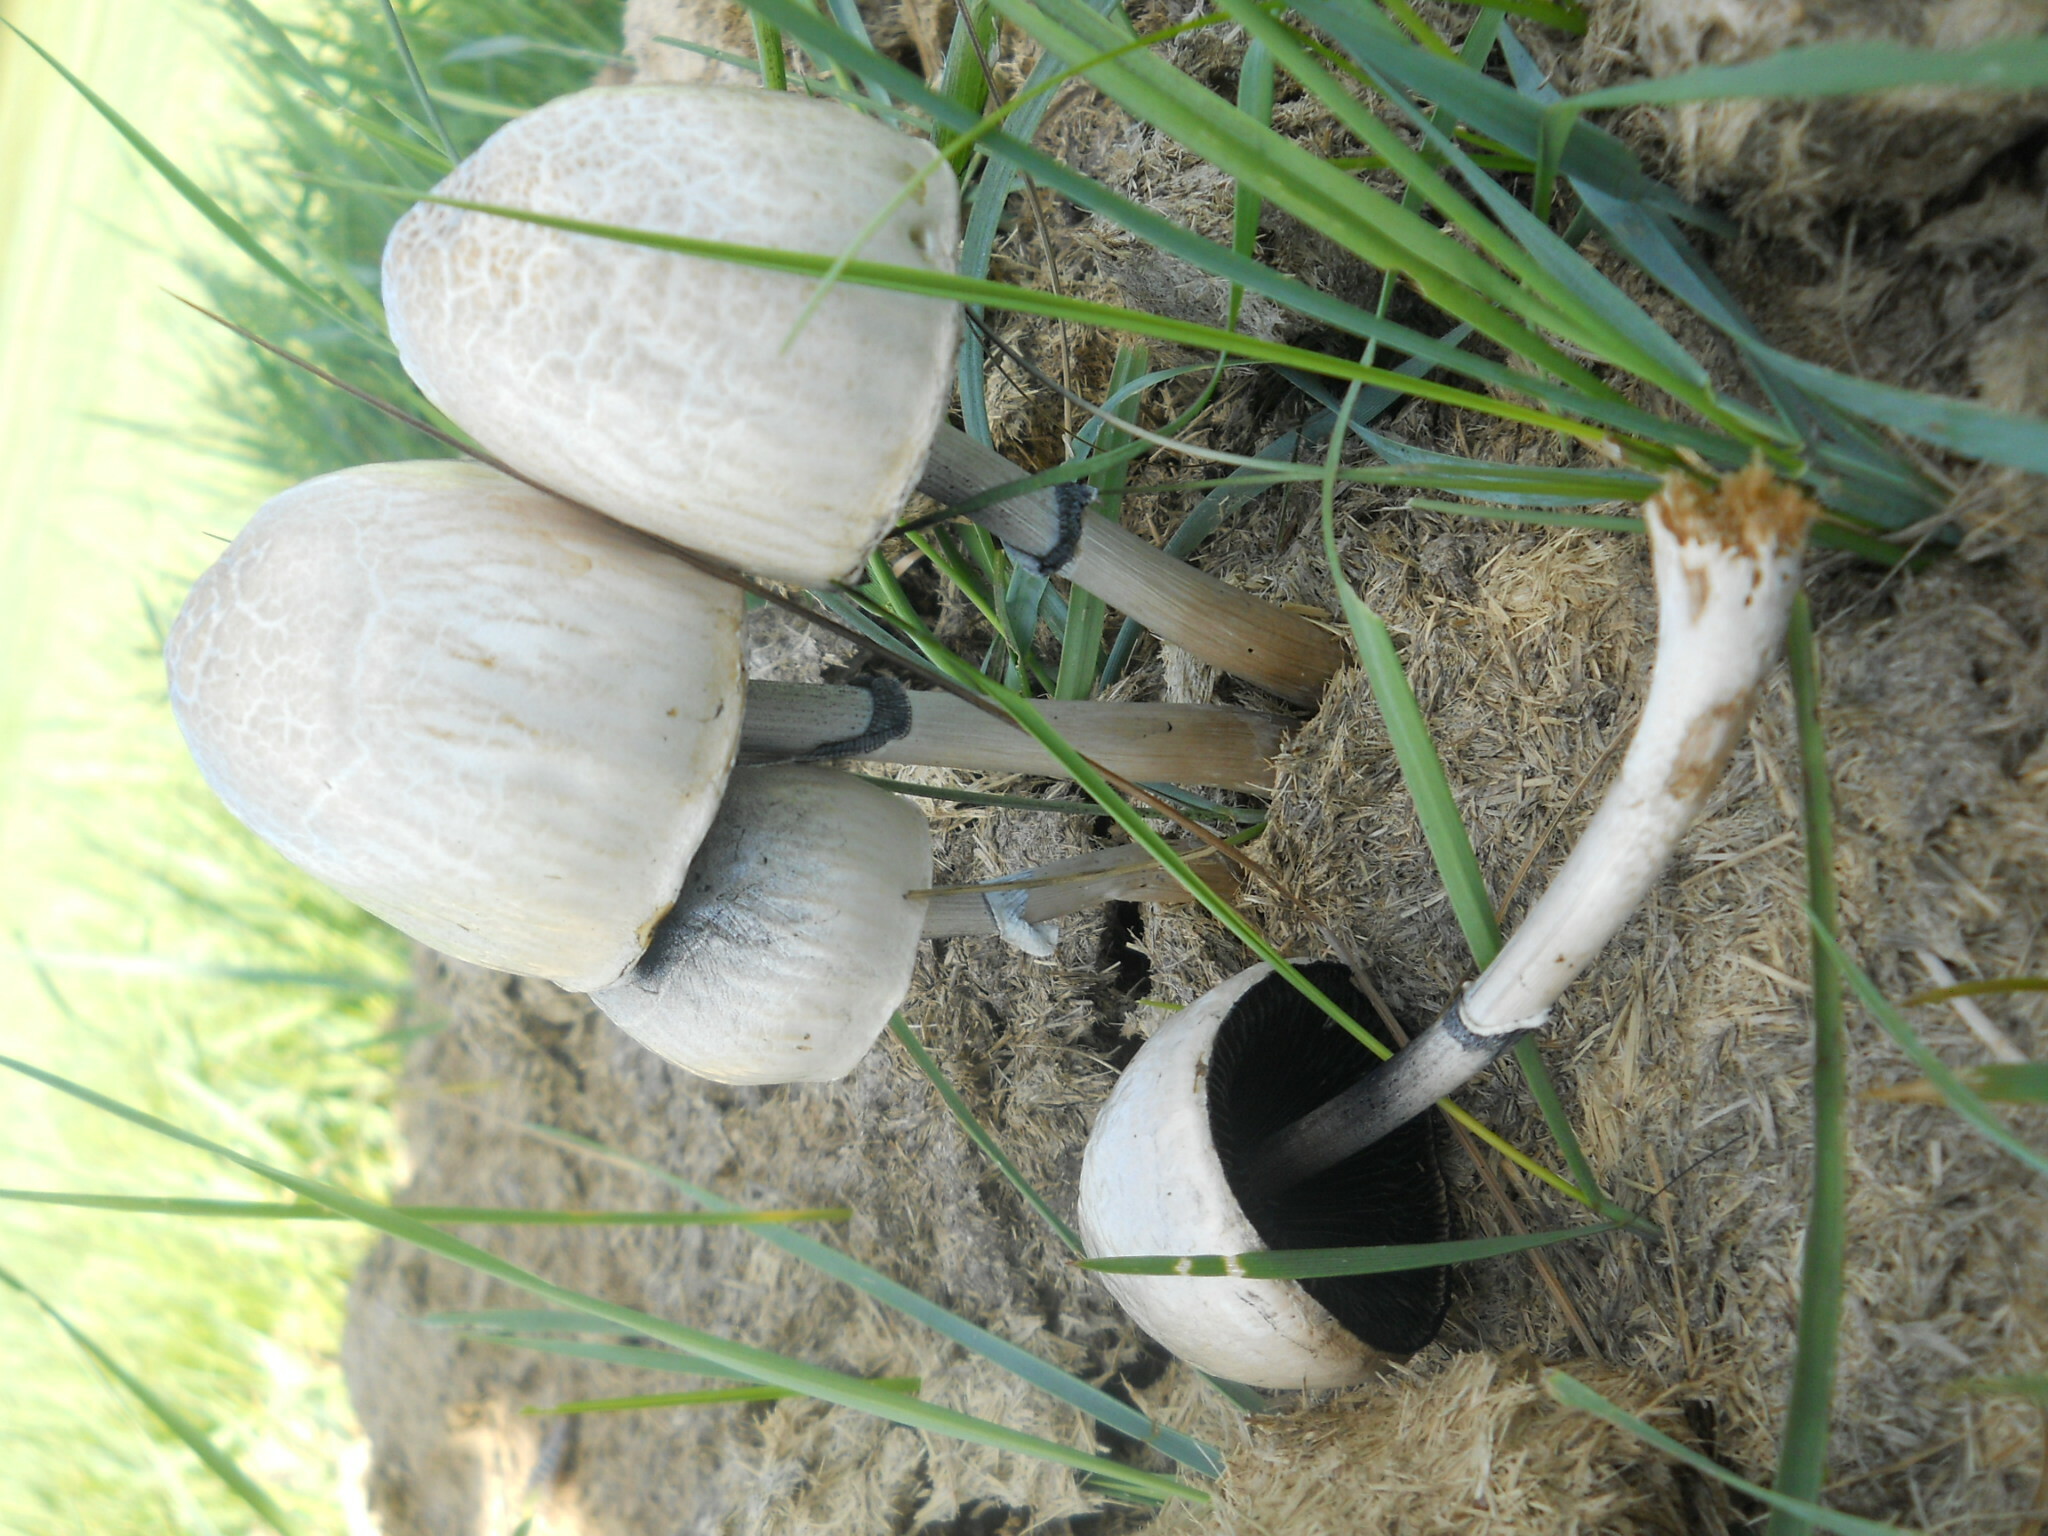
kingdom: Fungi
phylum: Basidiomycota
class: Agaricomycetes
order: Agaricales
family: Bolbitiaceae
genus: Panaeolus
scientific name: Panaeolus semiovatus
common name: Shiny mottlegill
